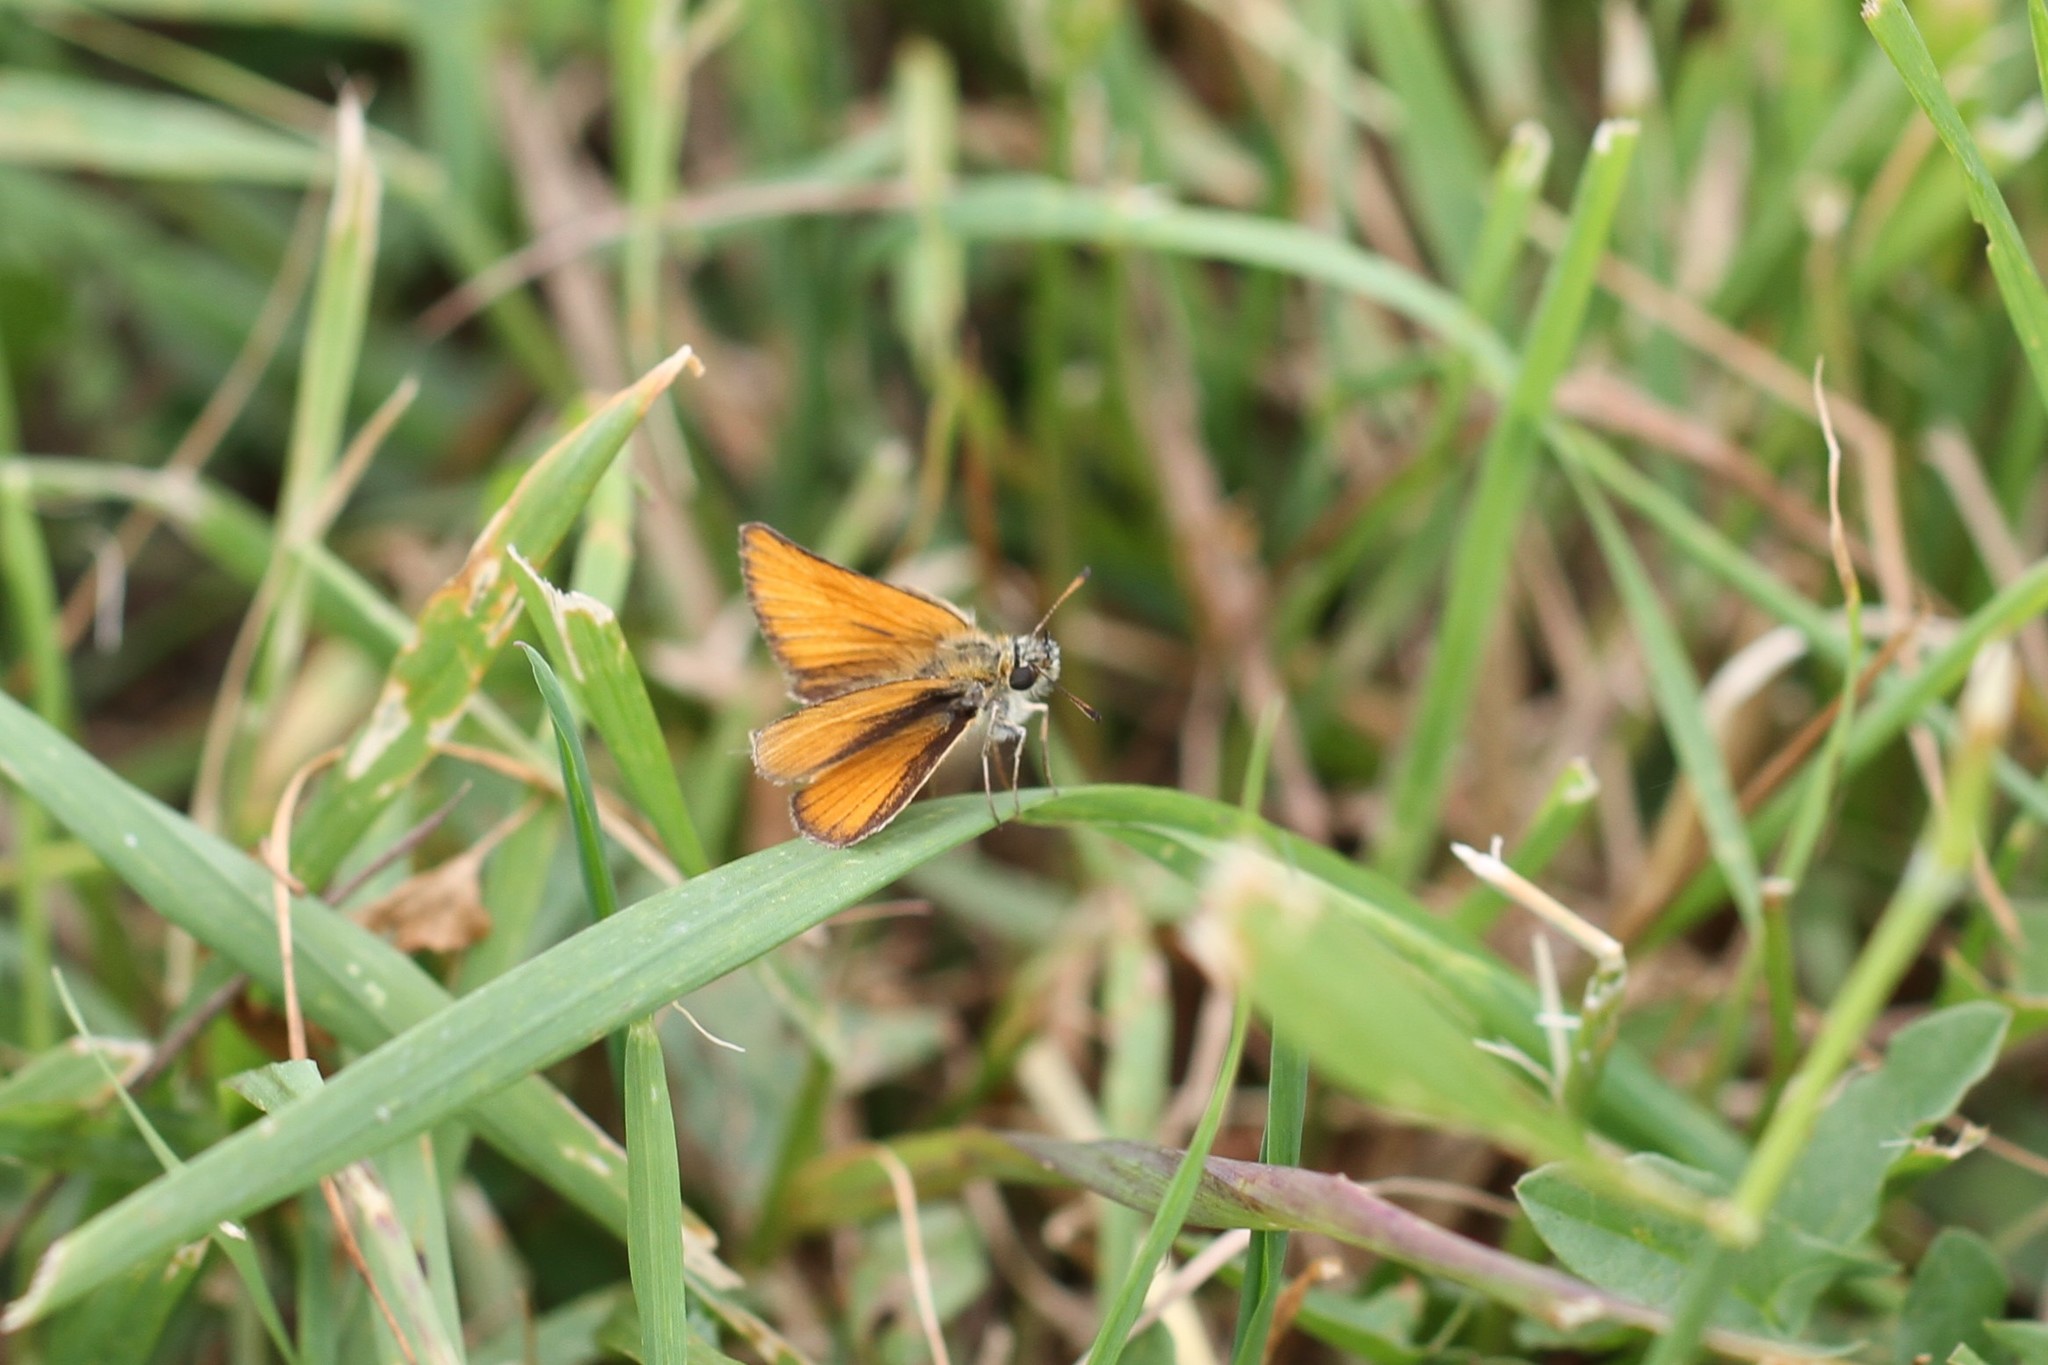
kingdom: Animalia
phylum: Arthropoda
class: Insecta
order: Lepidoptera
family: Hesperiidae
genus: Thymelicus
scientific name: Thymelicus lineola
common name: Essex skipper
